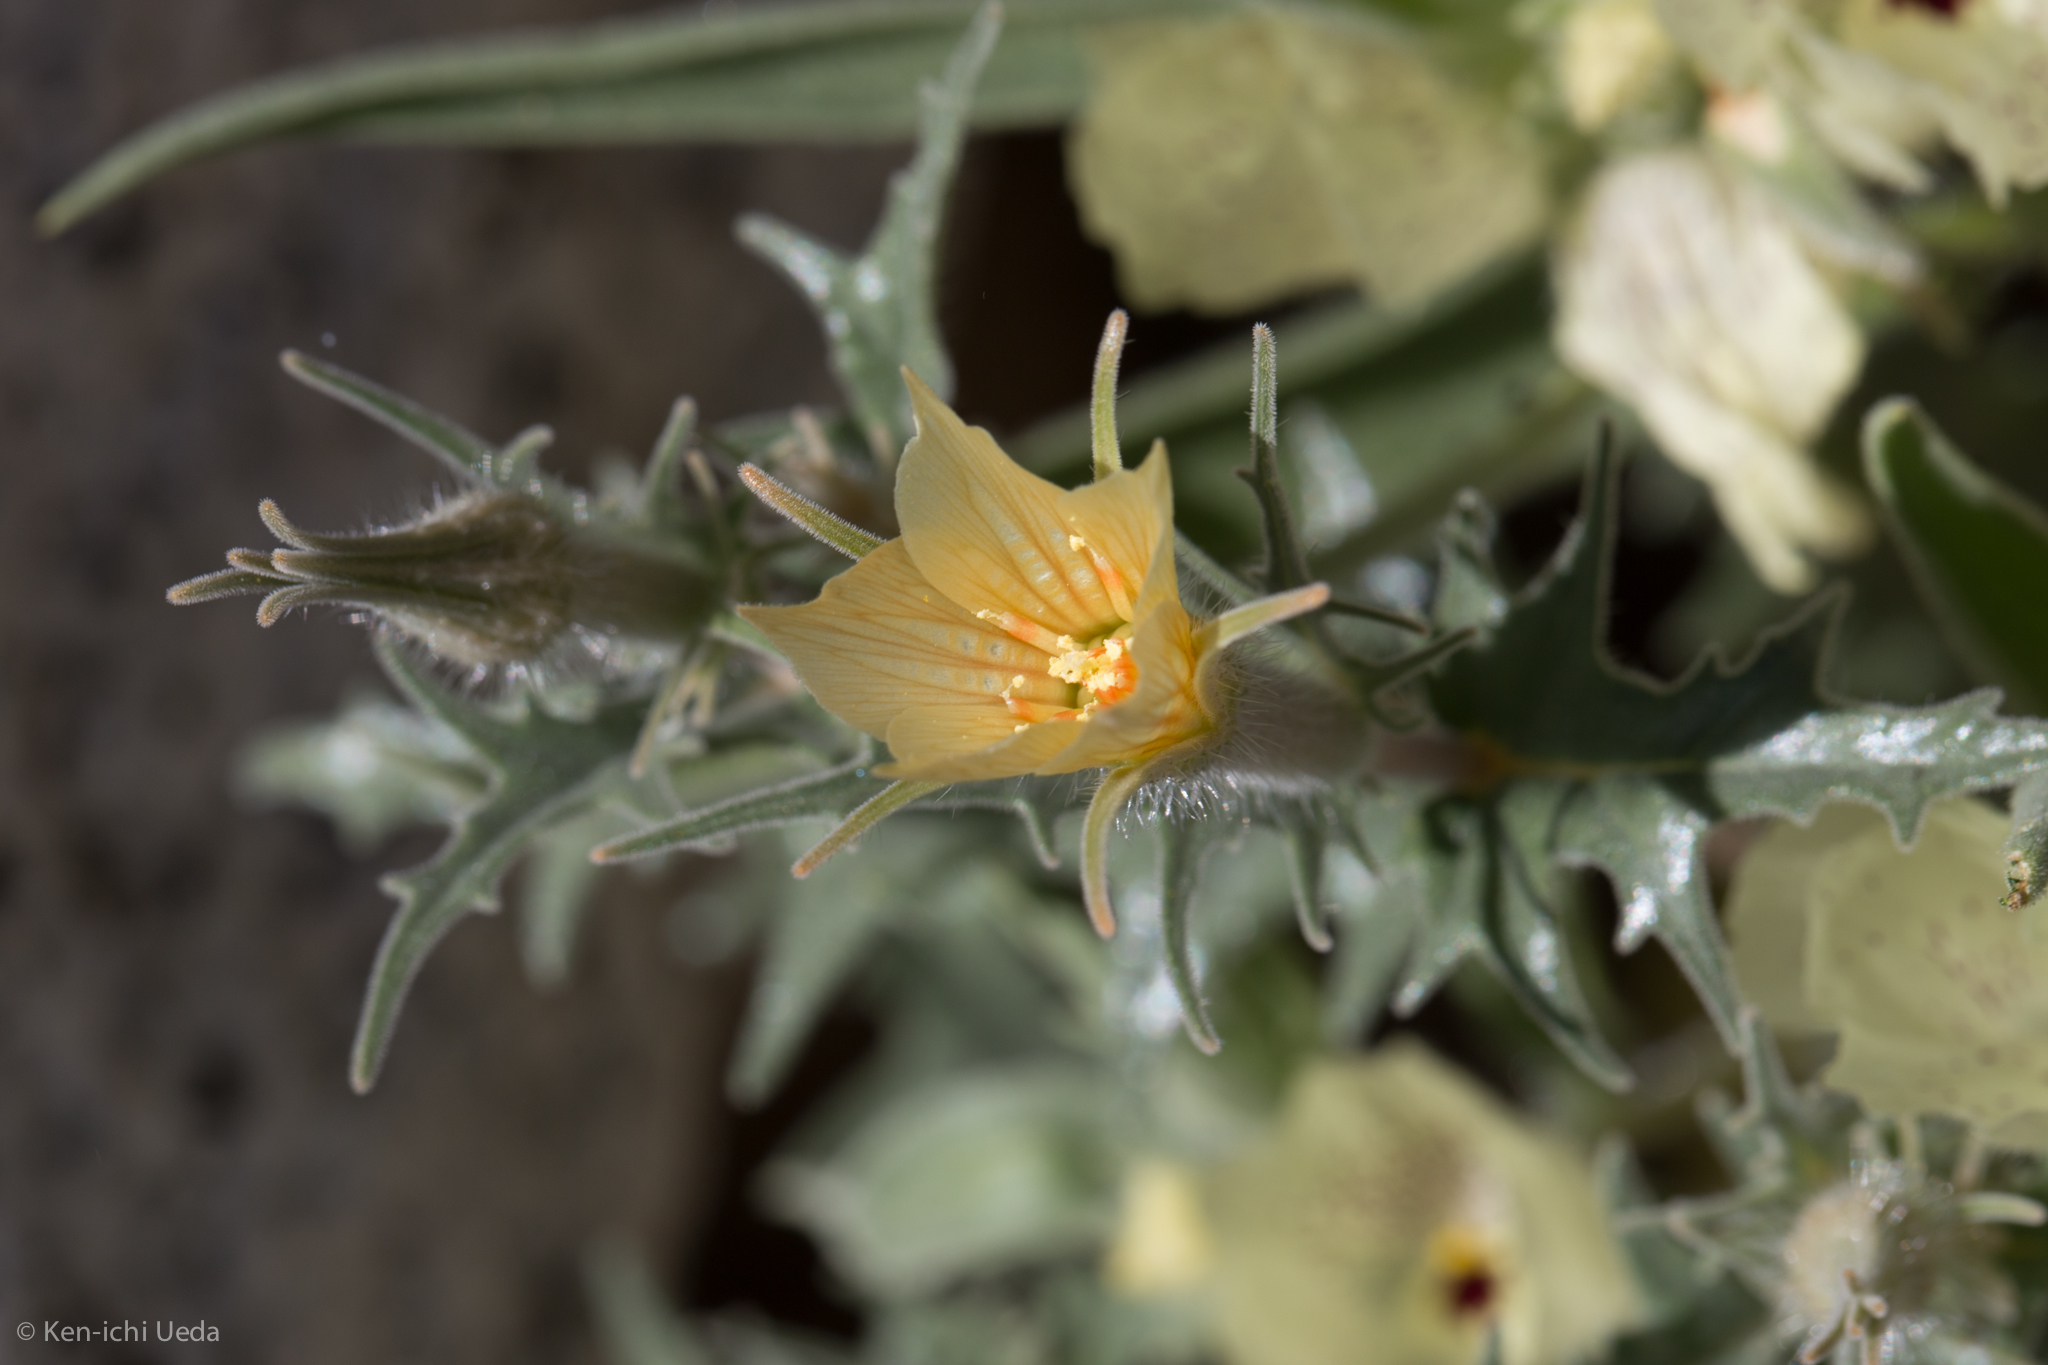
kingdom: Plantae
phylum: Tracheophyta
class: Magnoliopsida
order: Cornales
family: Loasaceae
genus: Mentzelia
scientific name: Mentzelia hirsutissima
